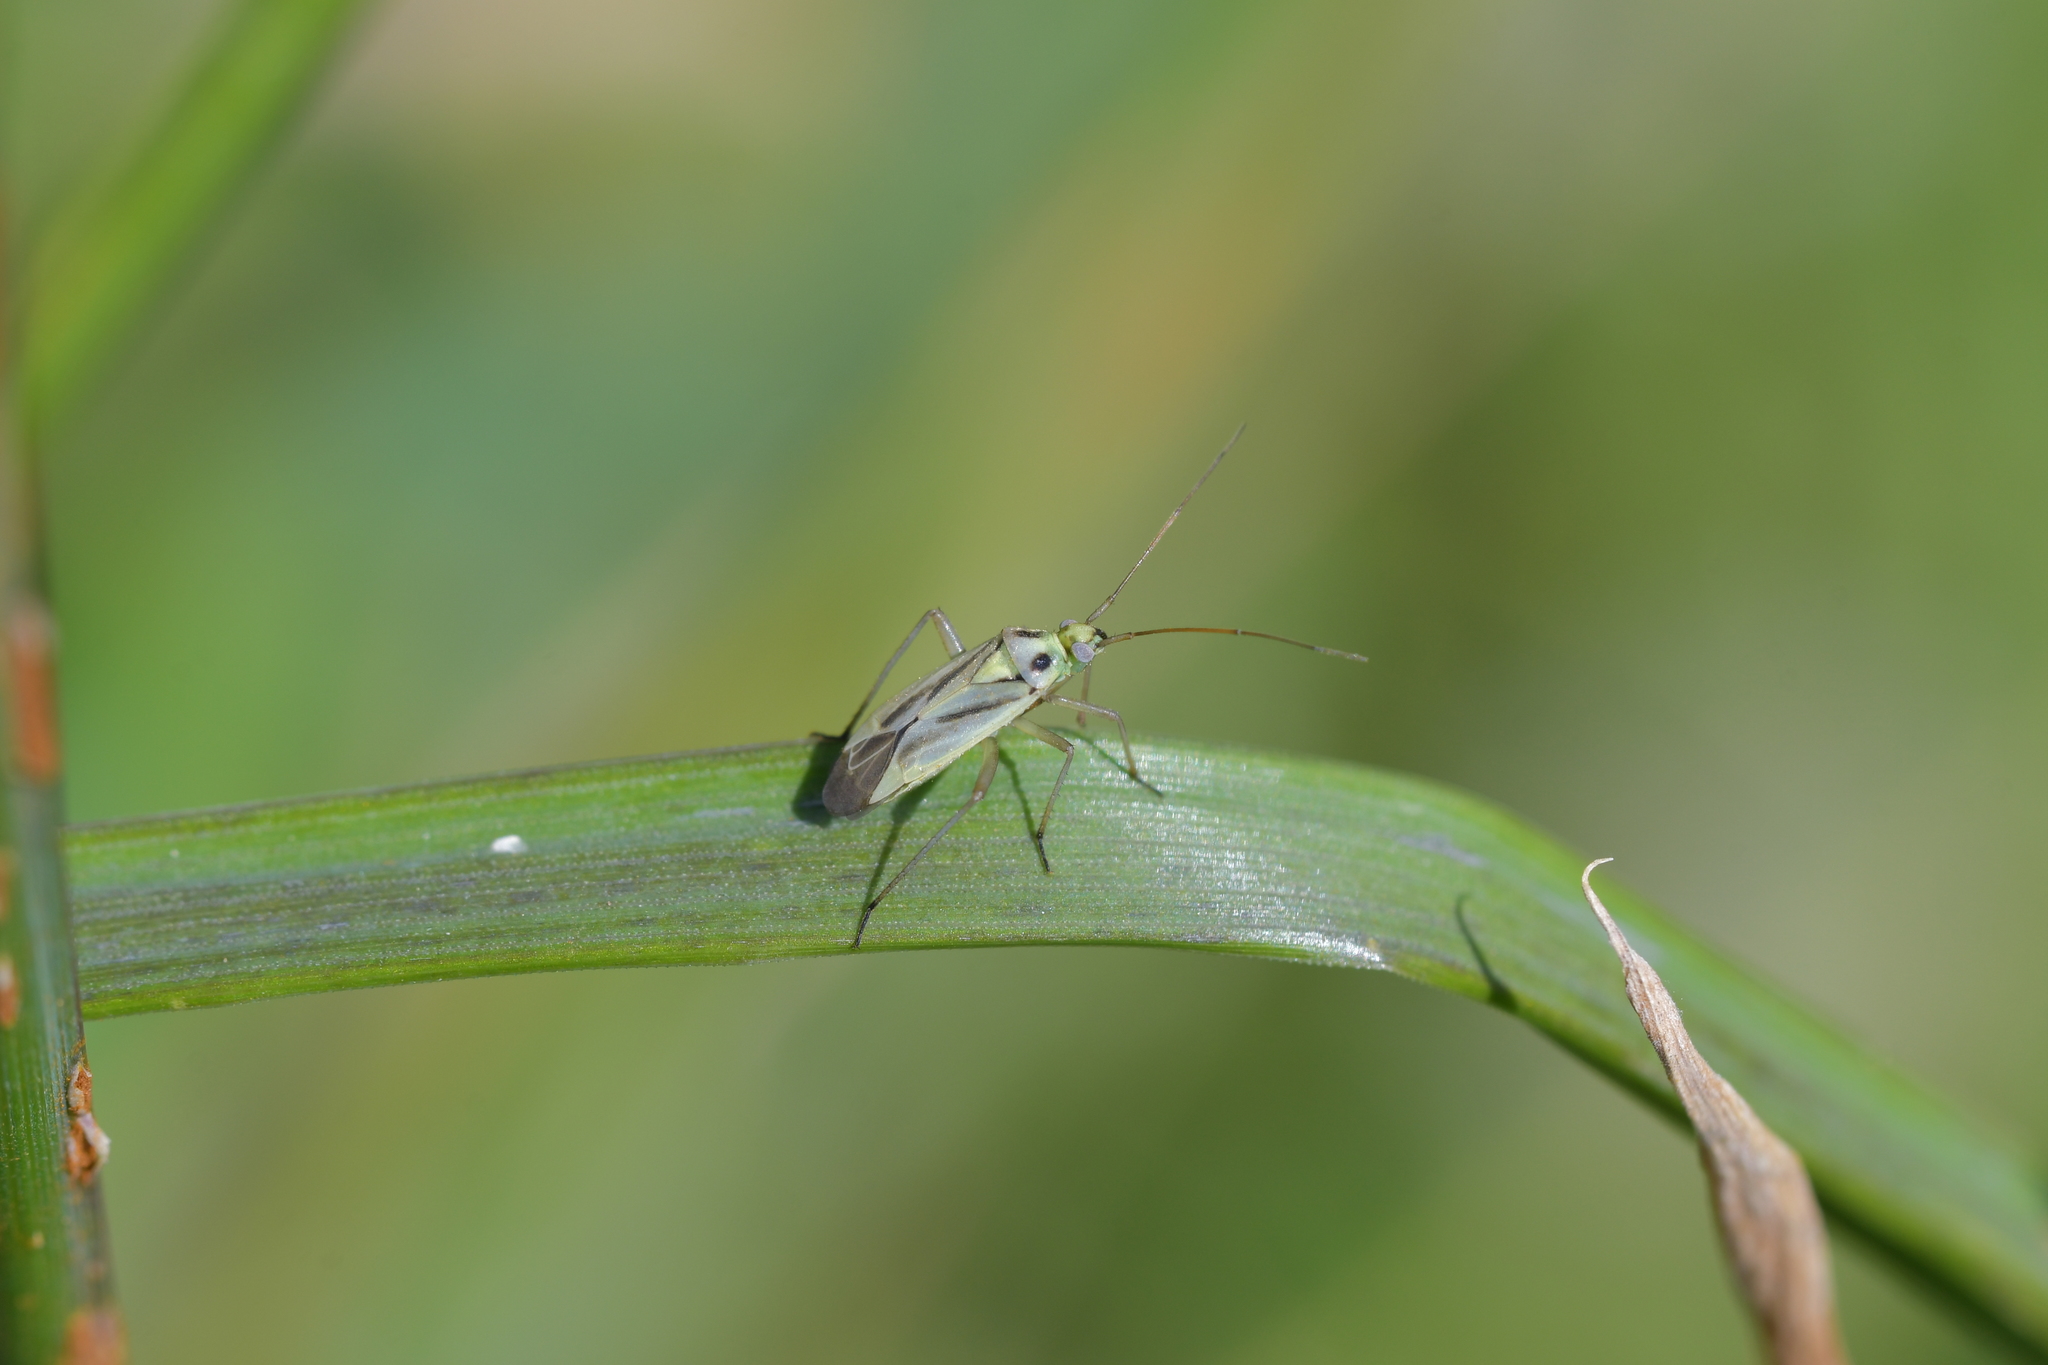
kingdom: Animalia
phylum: Arthropoda
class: Insecta
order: Hemiptera
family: Miridae
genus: Stenotus
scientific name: Stenotus binotatus
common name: Plant bug
